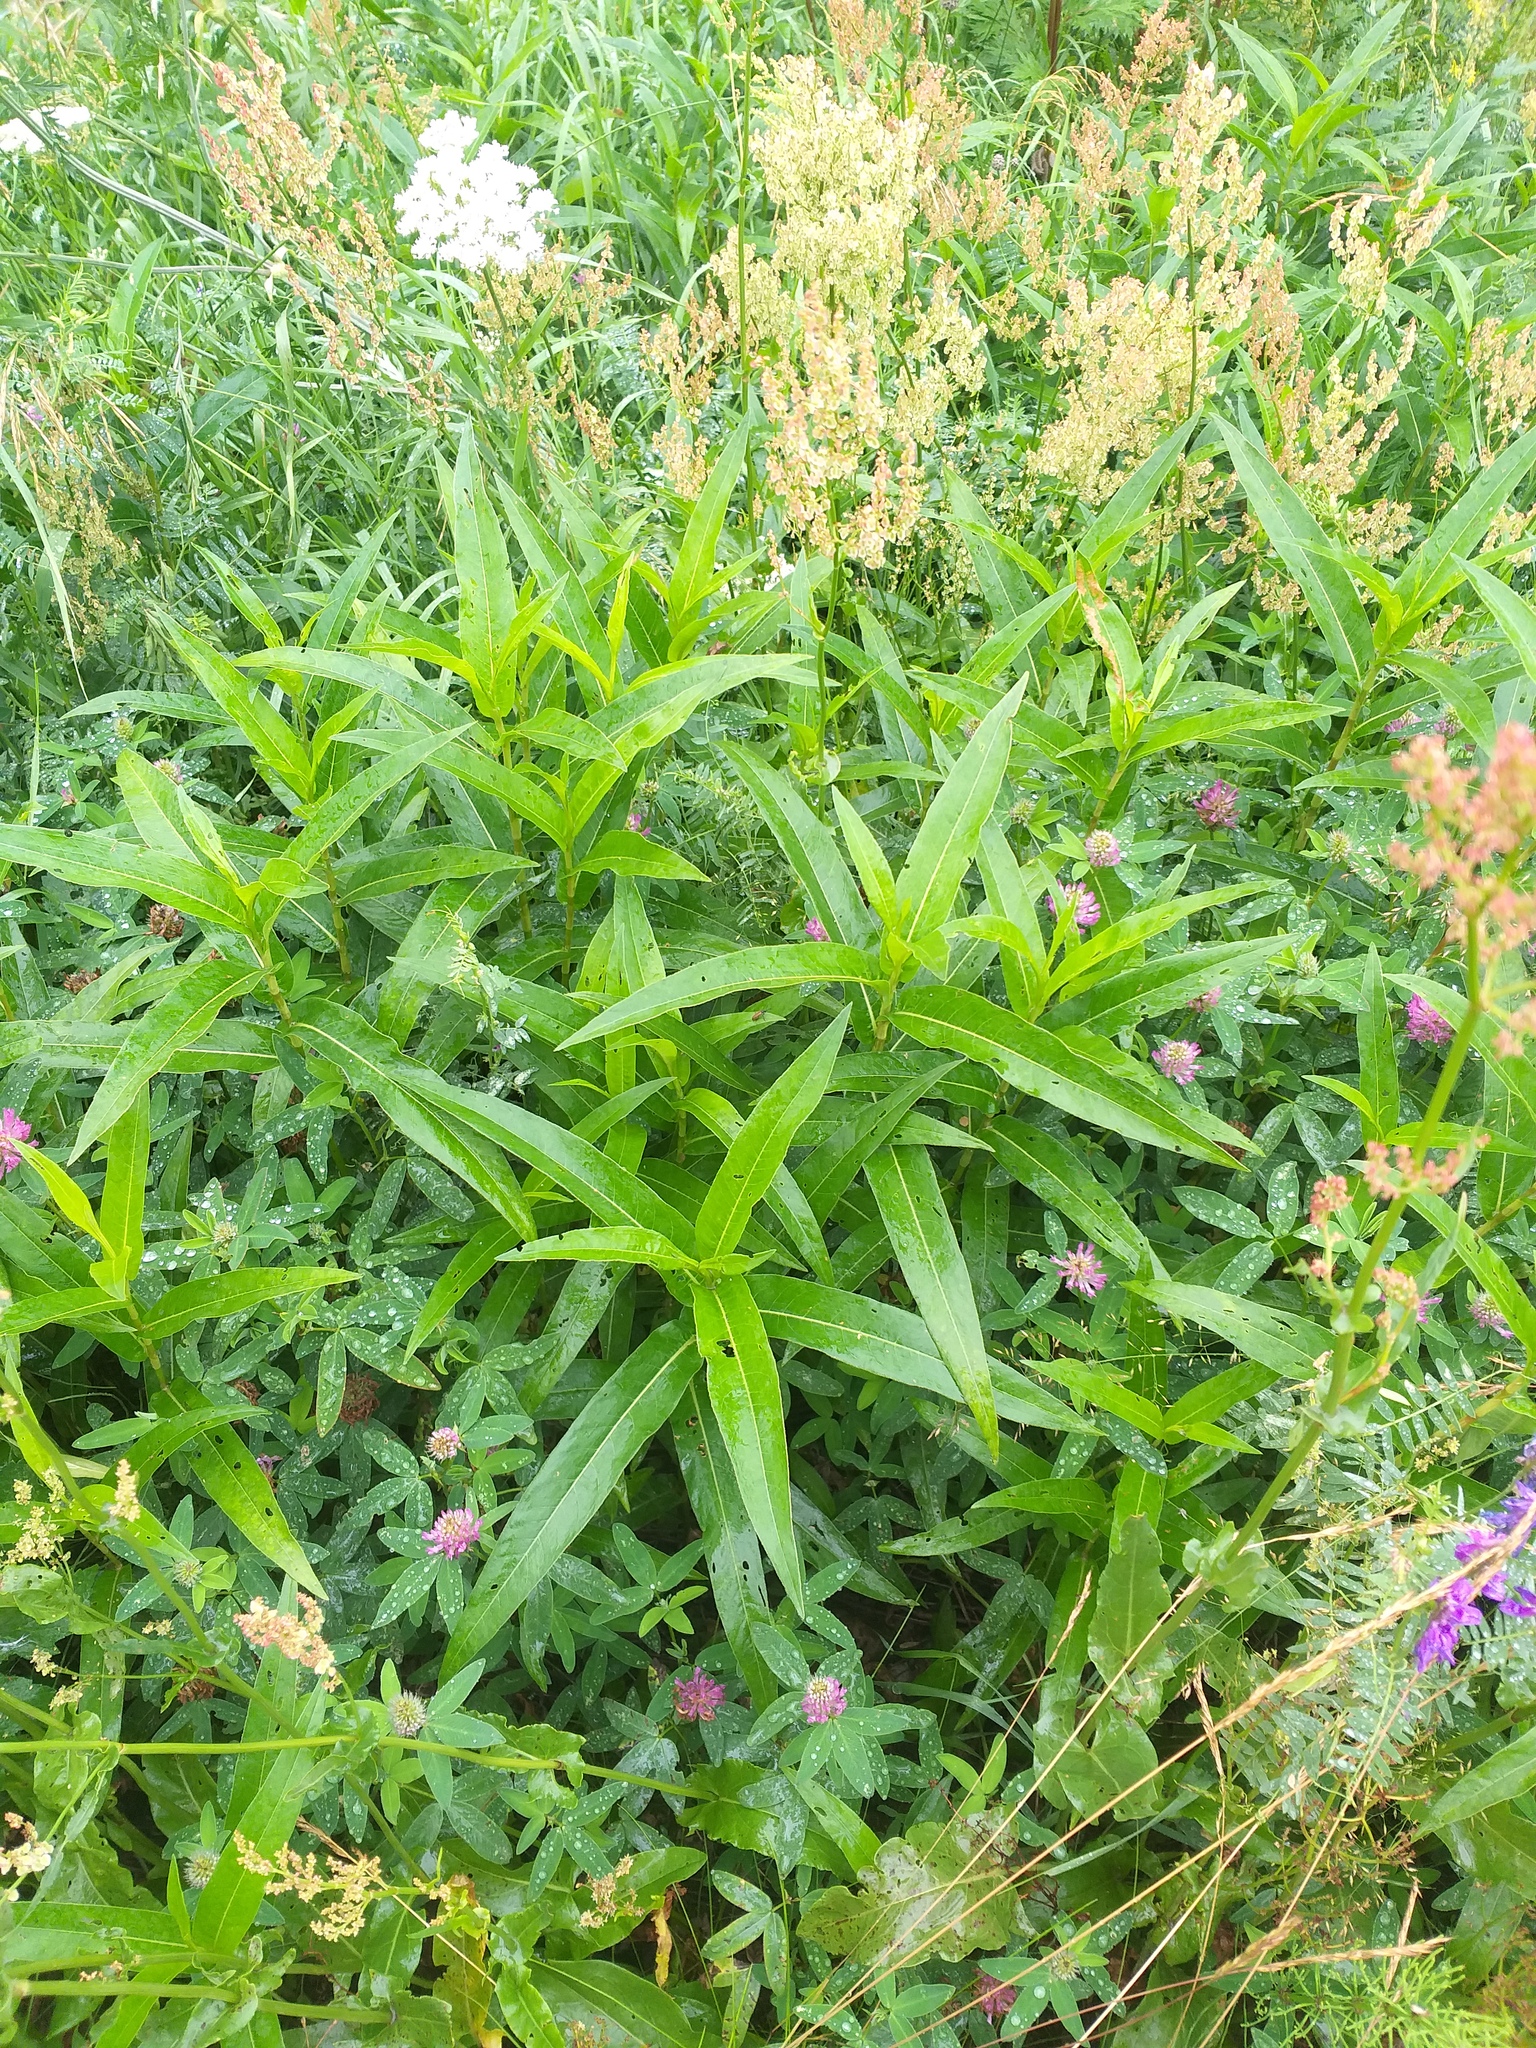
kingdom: Plantae
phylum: Tracheophyta
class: Magnoliopsida
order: Caryophyllales
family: Polygonaceae
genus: Persicaria
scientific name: Persicaria amphibia
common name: Amphibious bistort
